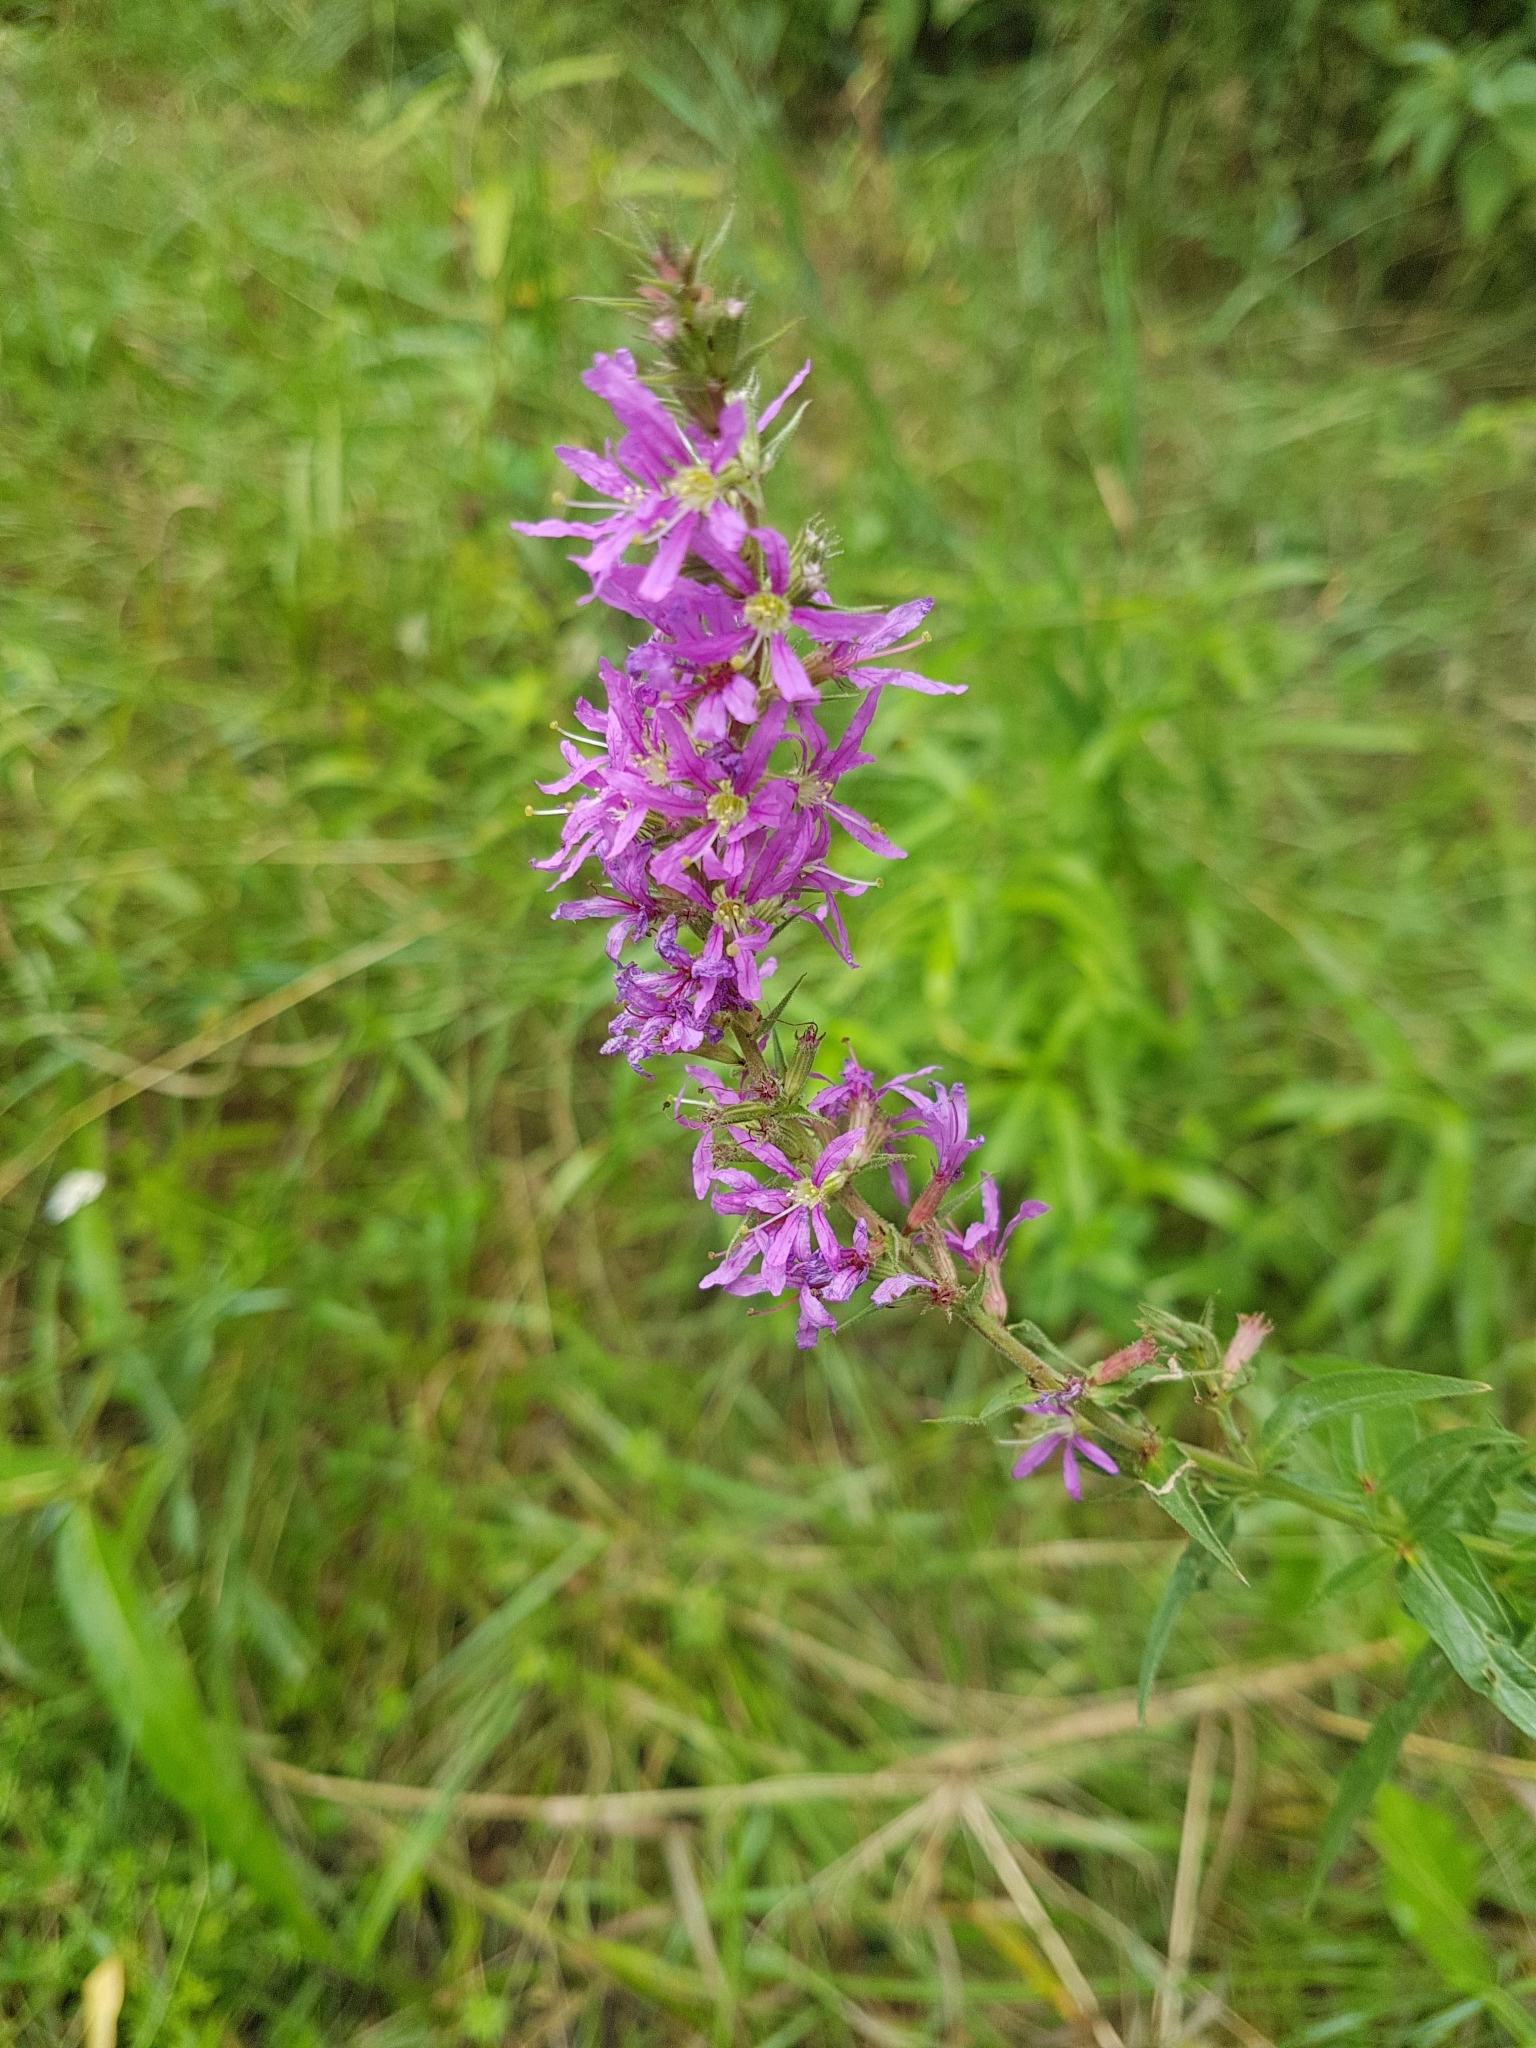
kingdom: Plantae
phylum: Tracheophyta
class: Magnoliopsida
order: Myrtales
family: Lythraceae
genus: Lythrum
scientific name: Lythrum salicaria
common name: Purple loosestrife
